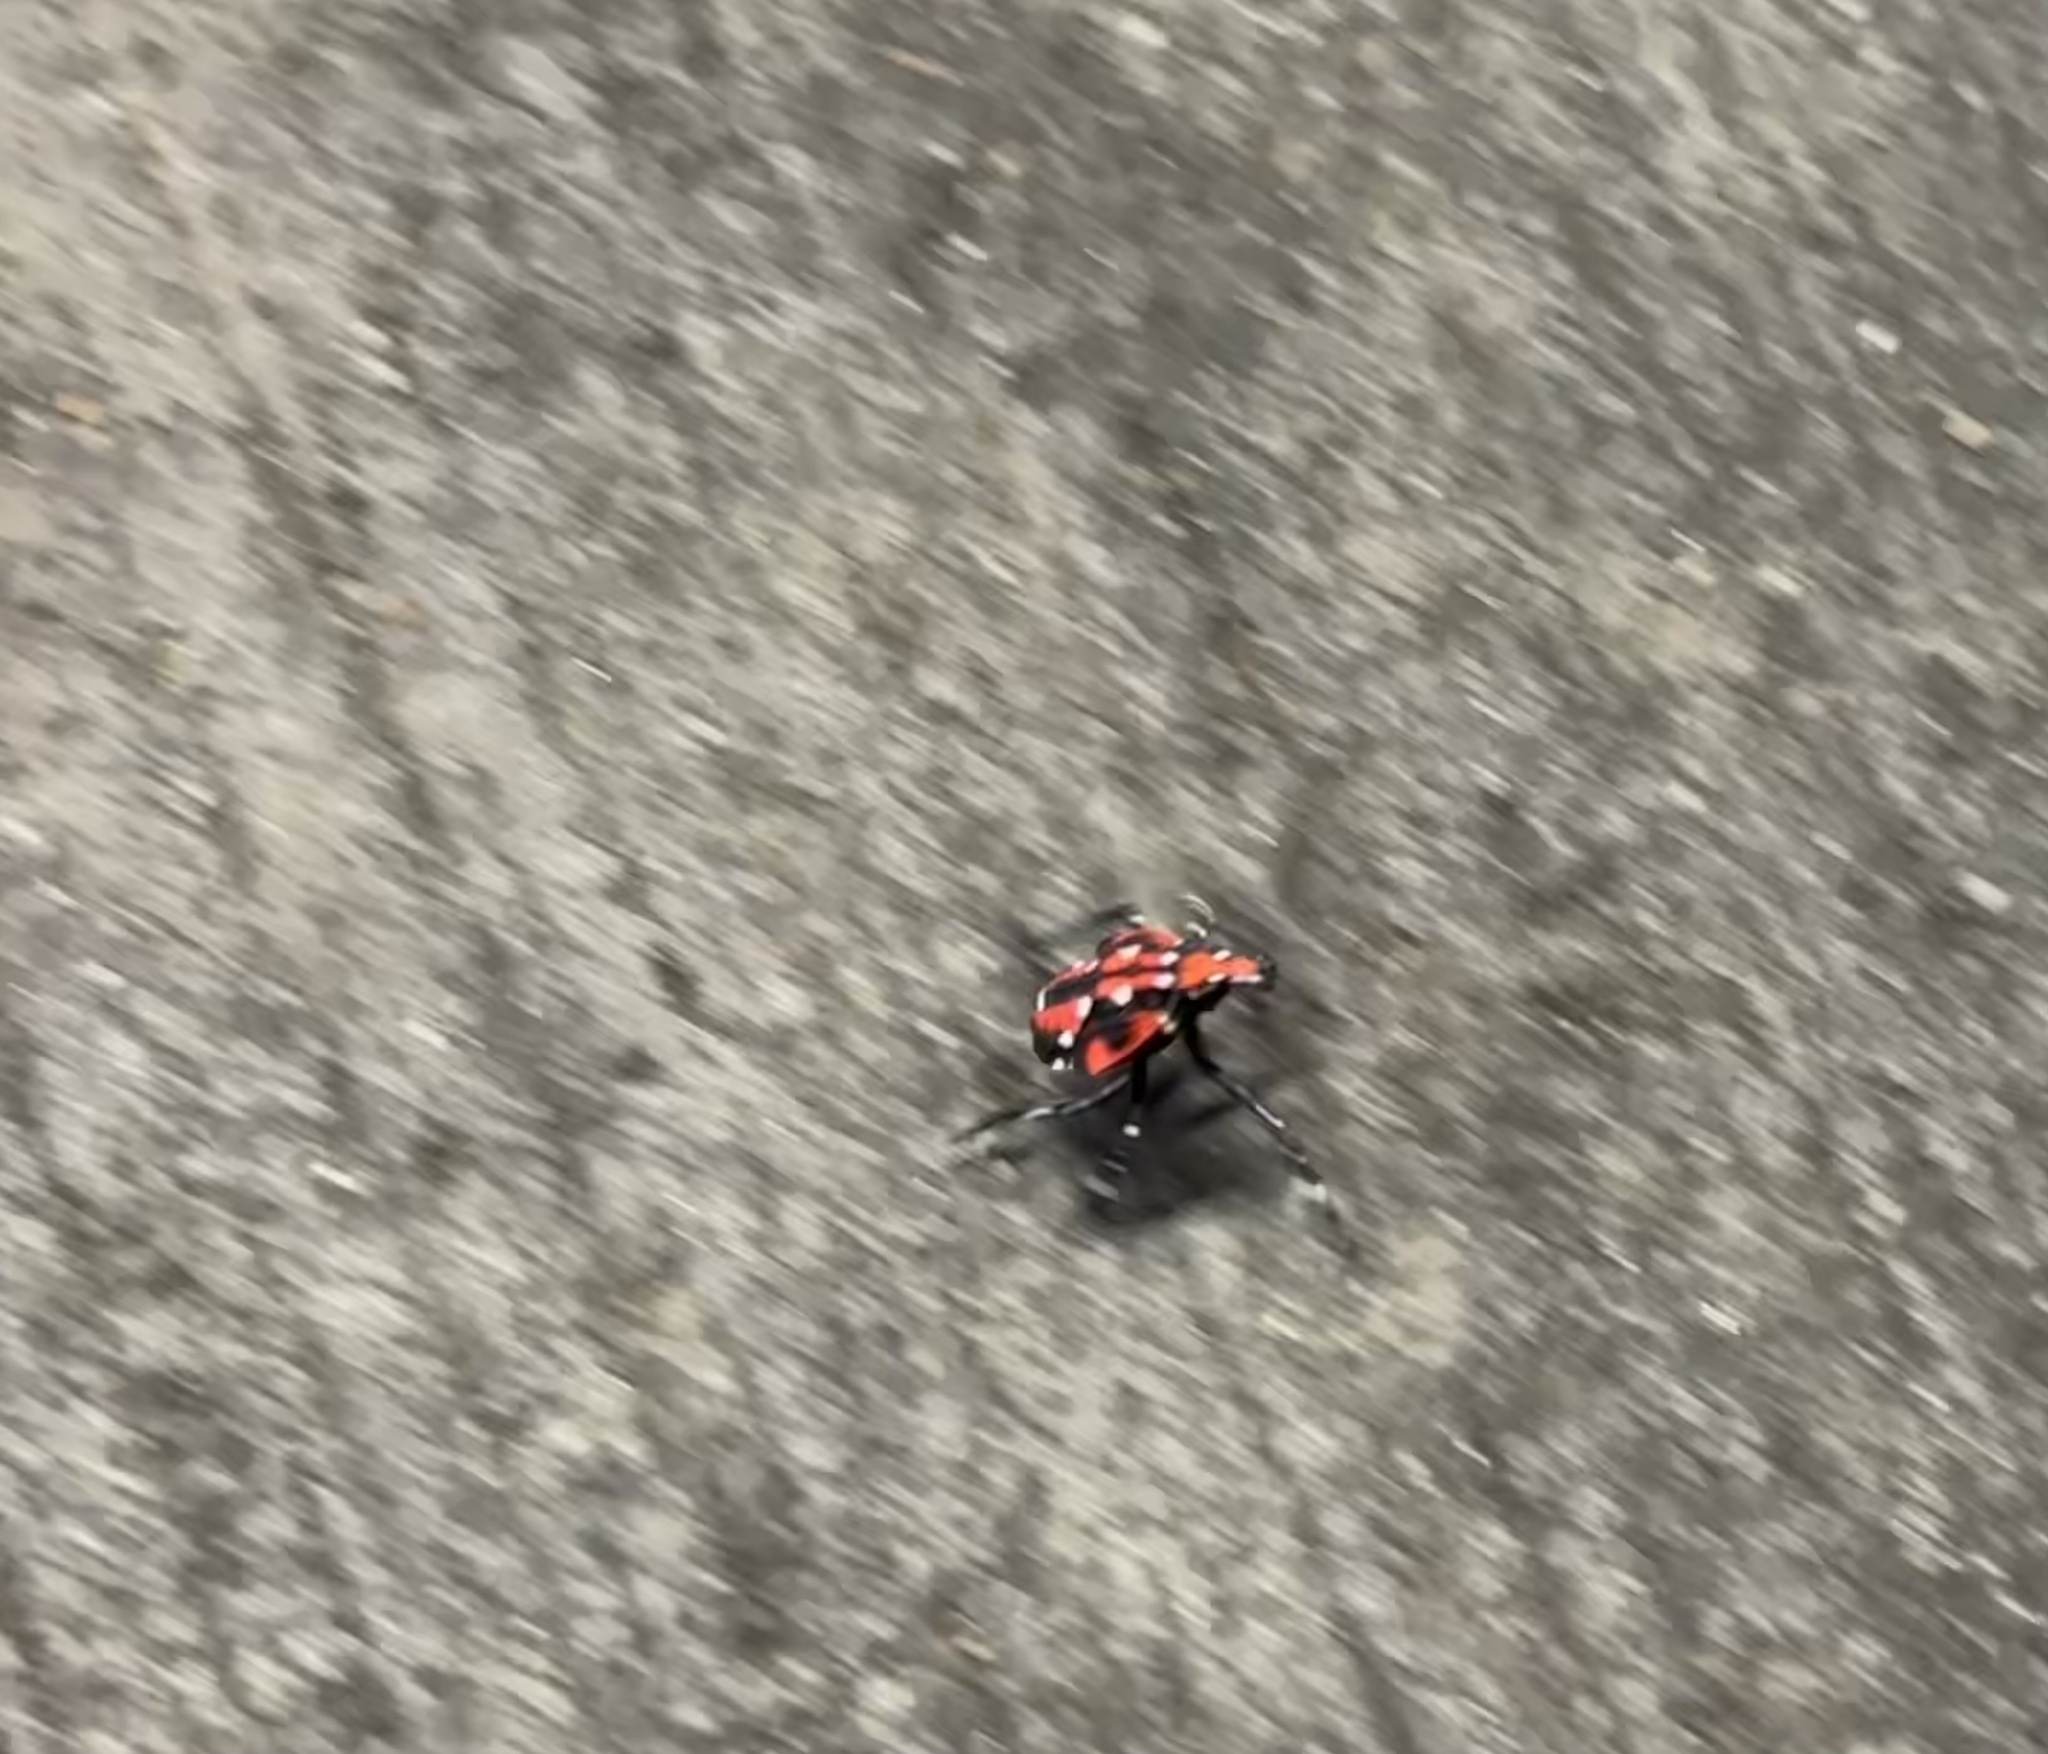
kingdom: Animalia
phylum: Arthropoda
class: Insecta
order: Hemiptera
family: Fulgoridae
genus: Lycorma
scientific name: Lycorma delicatula
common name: Spotted lanternfly
